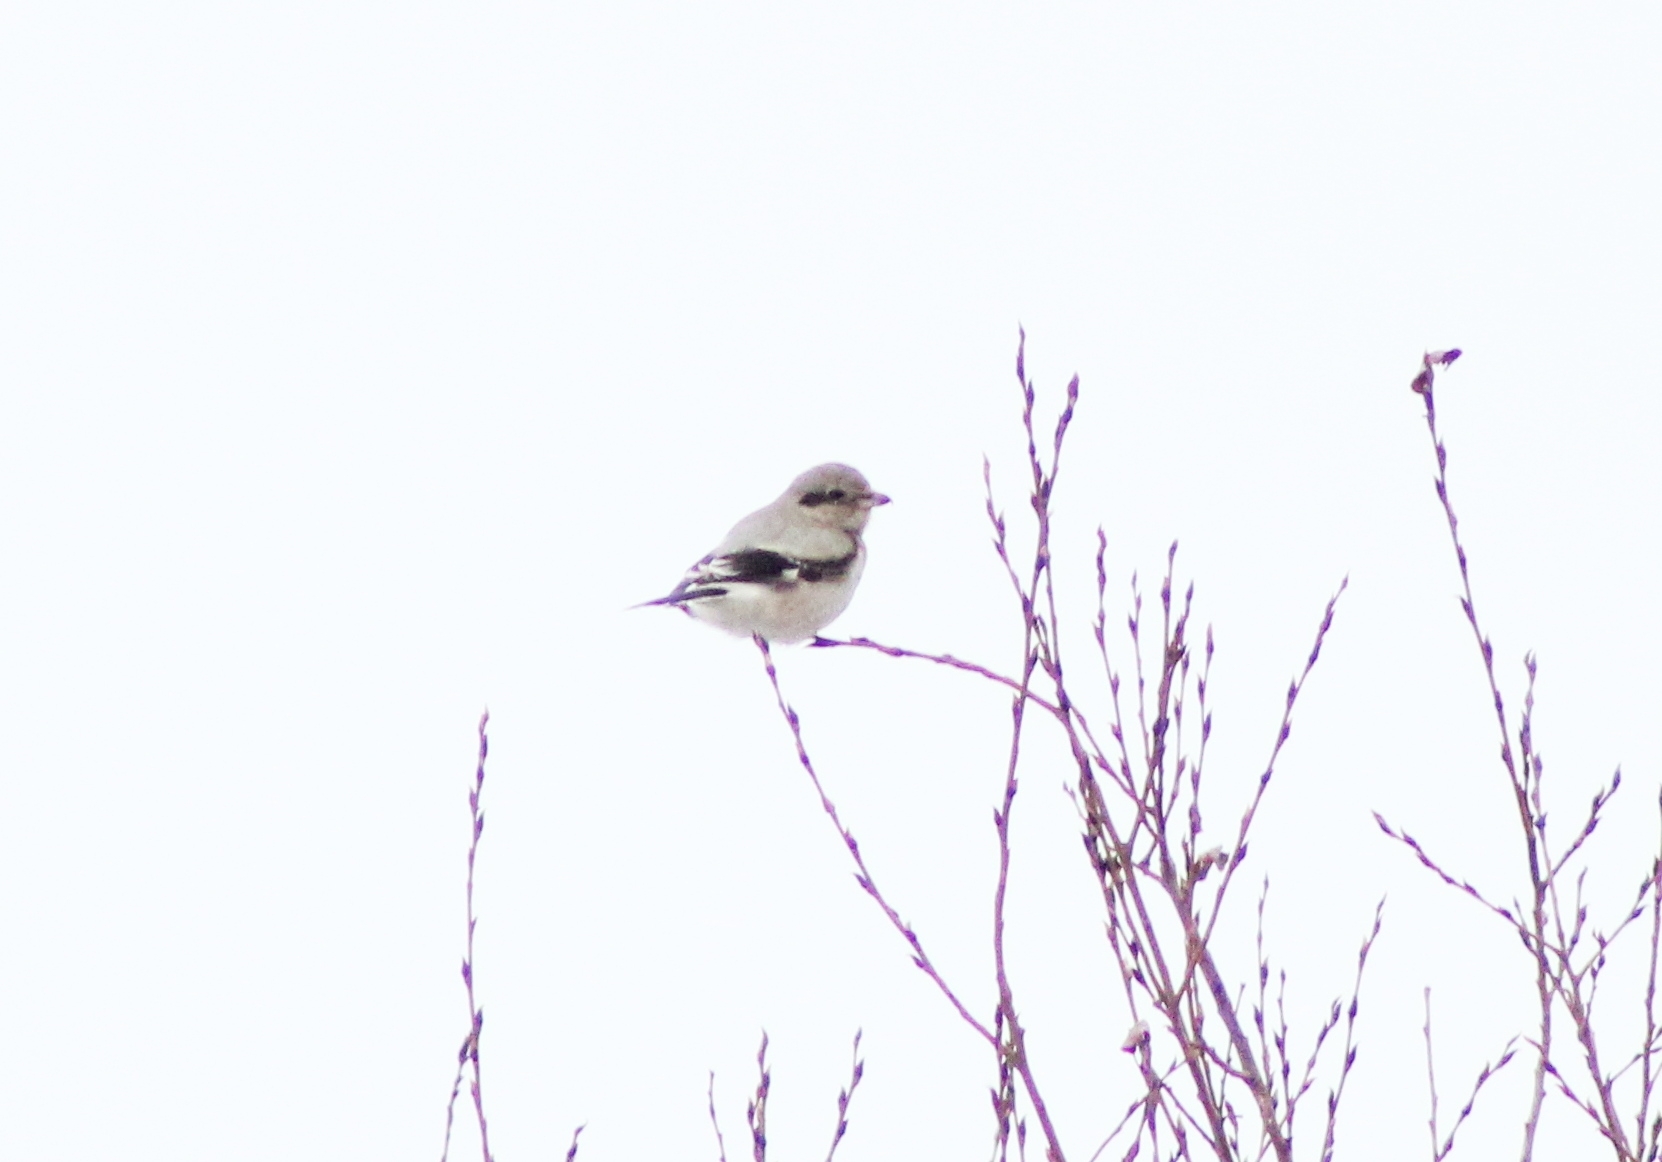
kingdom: Animalia
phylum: Chordata
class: Aves
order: Passeriformes
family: Laniidae
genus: Lanius
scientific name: Lanius excubitor
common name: Great grey shrike
